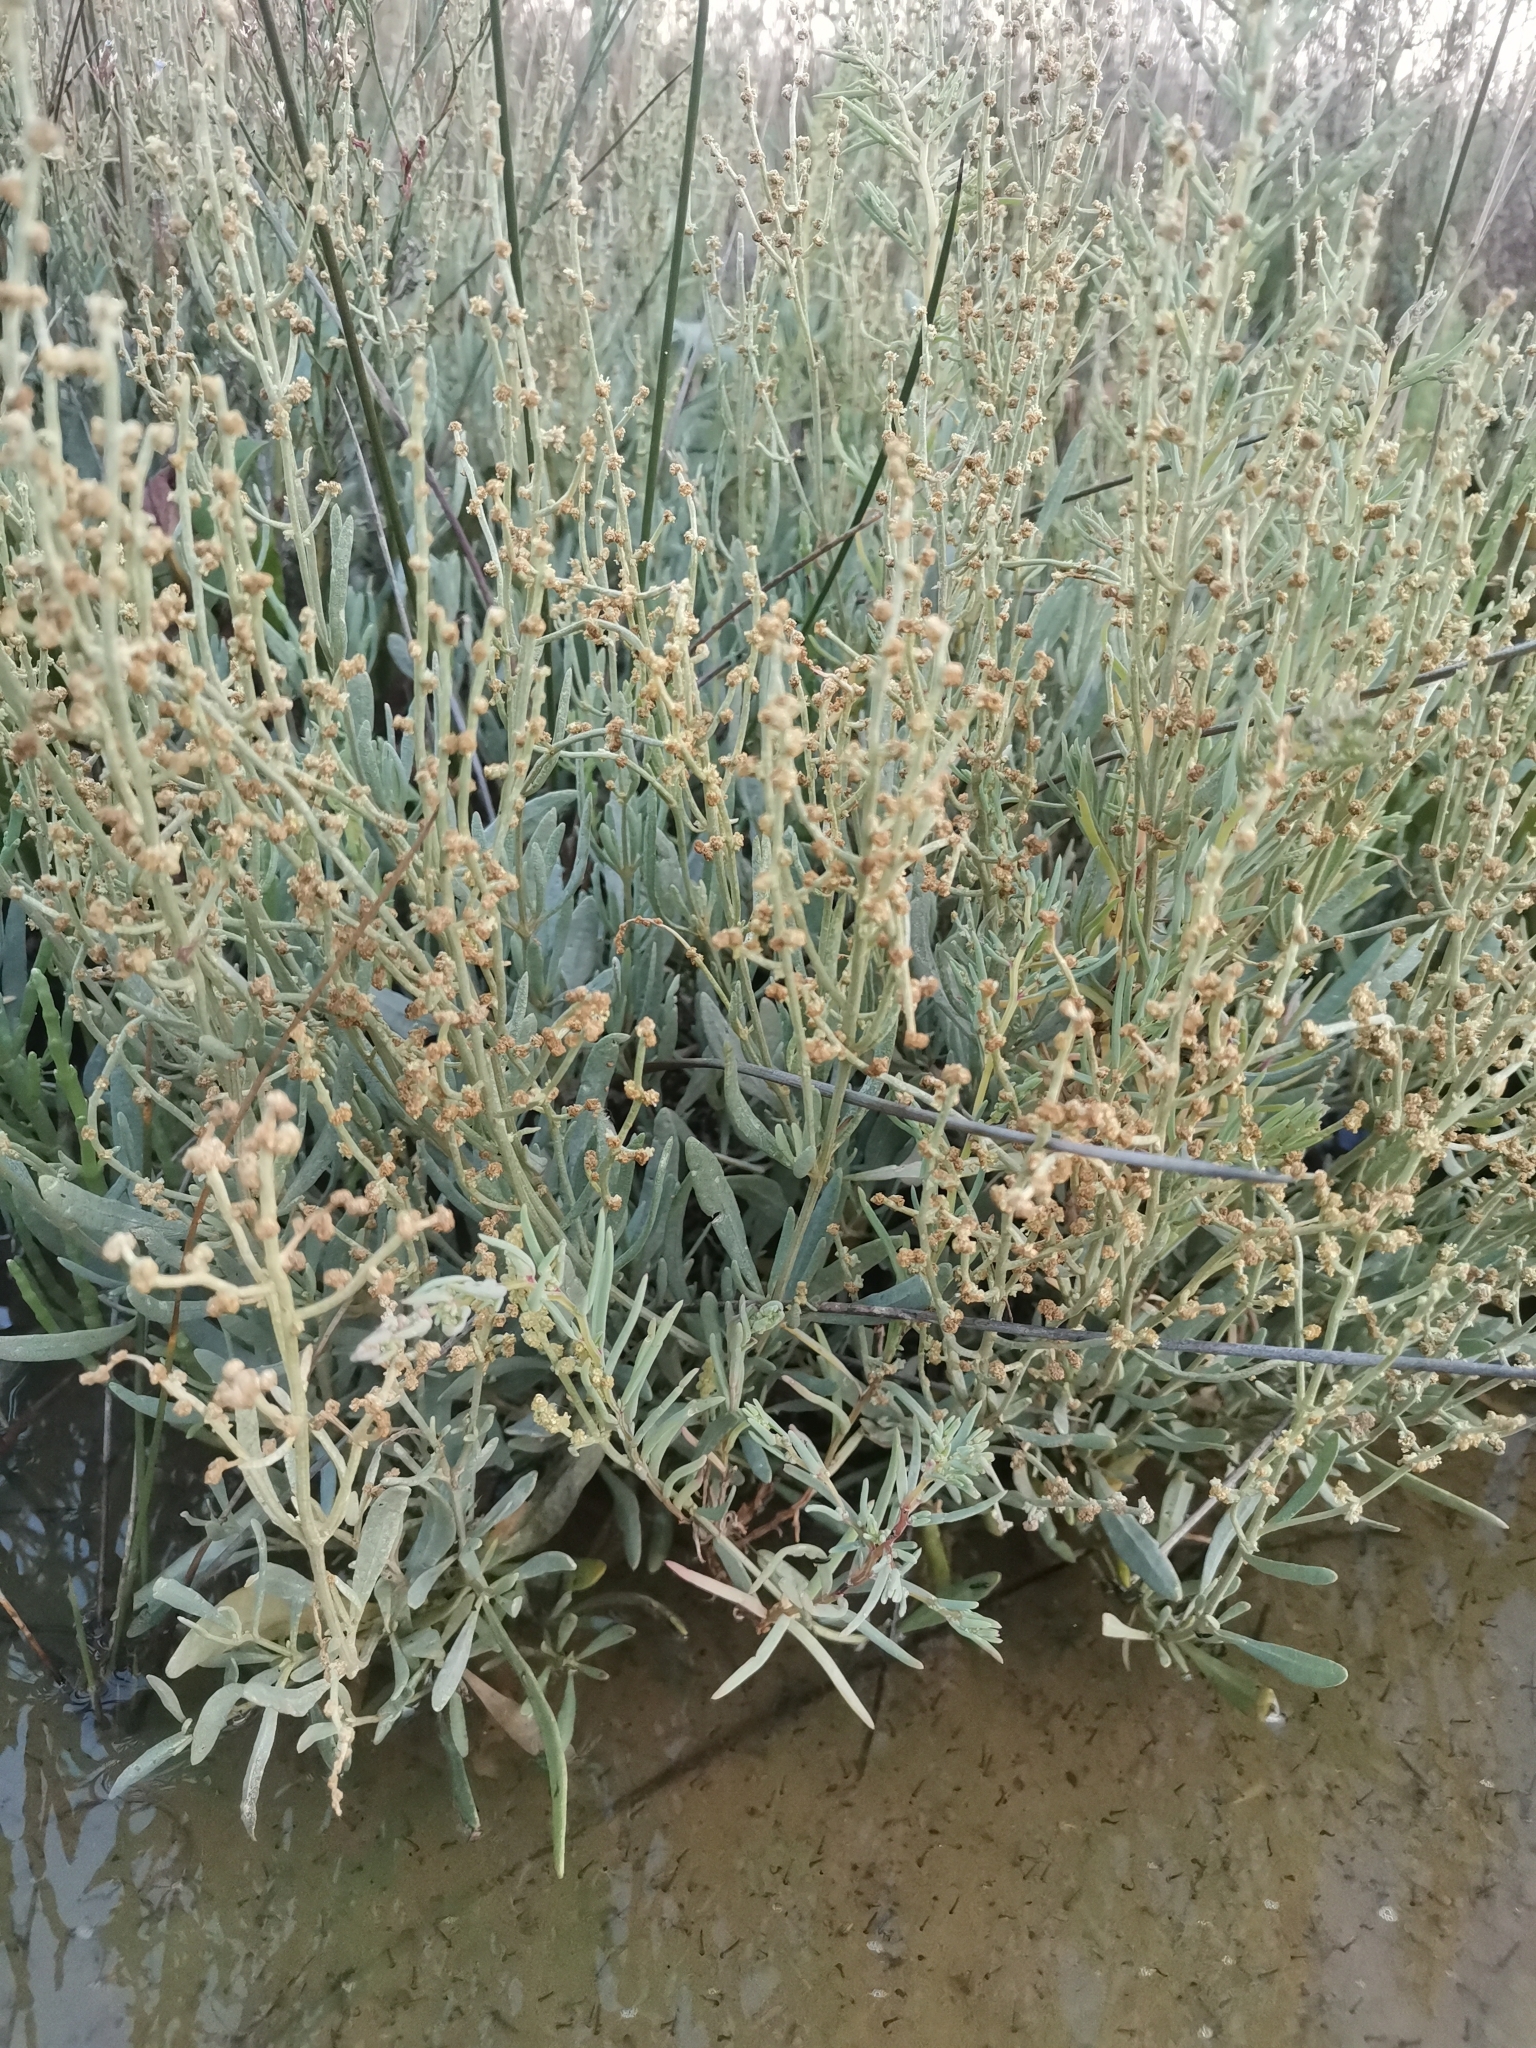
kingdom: Plantae
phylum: Tracheophyta
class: Magnoliopsida
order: Caryophyllales
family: Amaranthaceae
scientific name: Amaranthaceae
